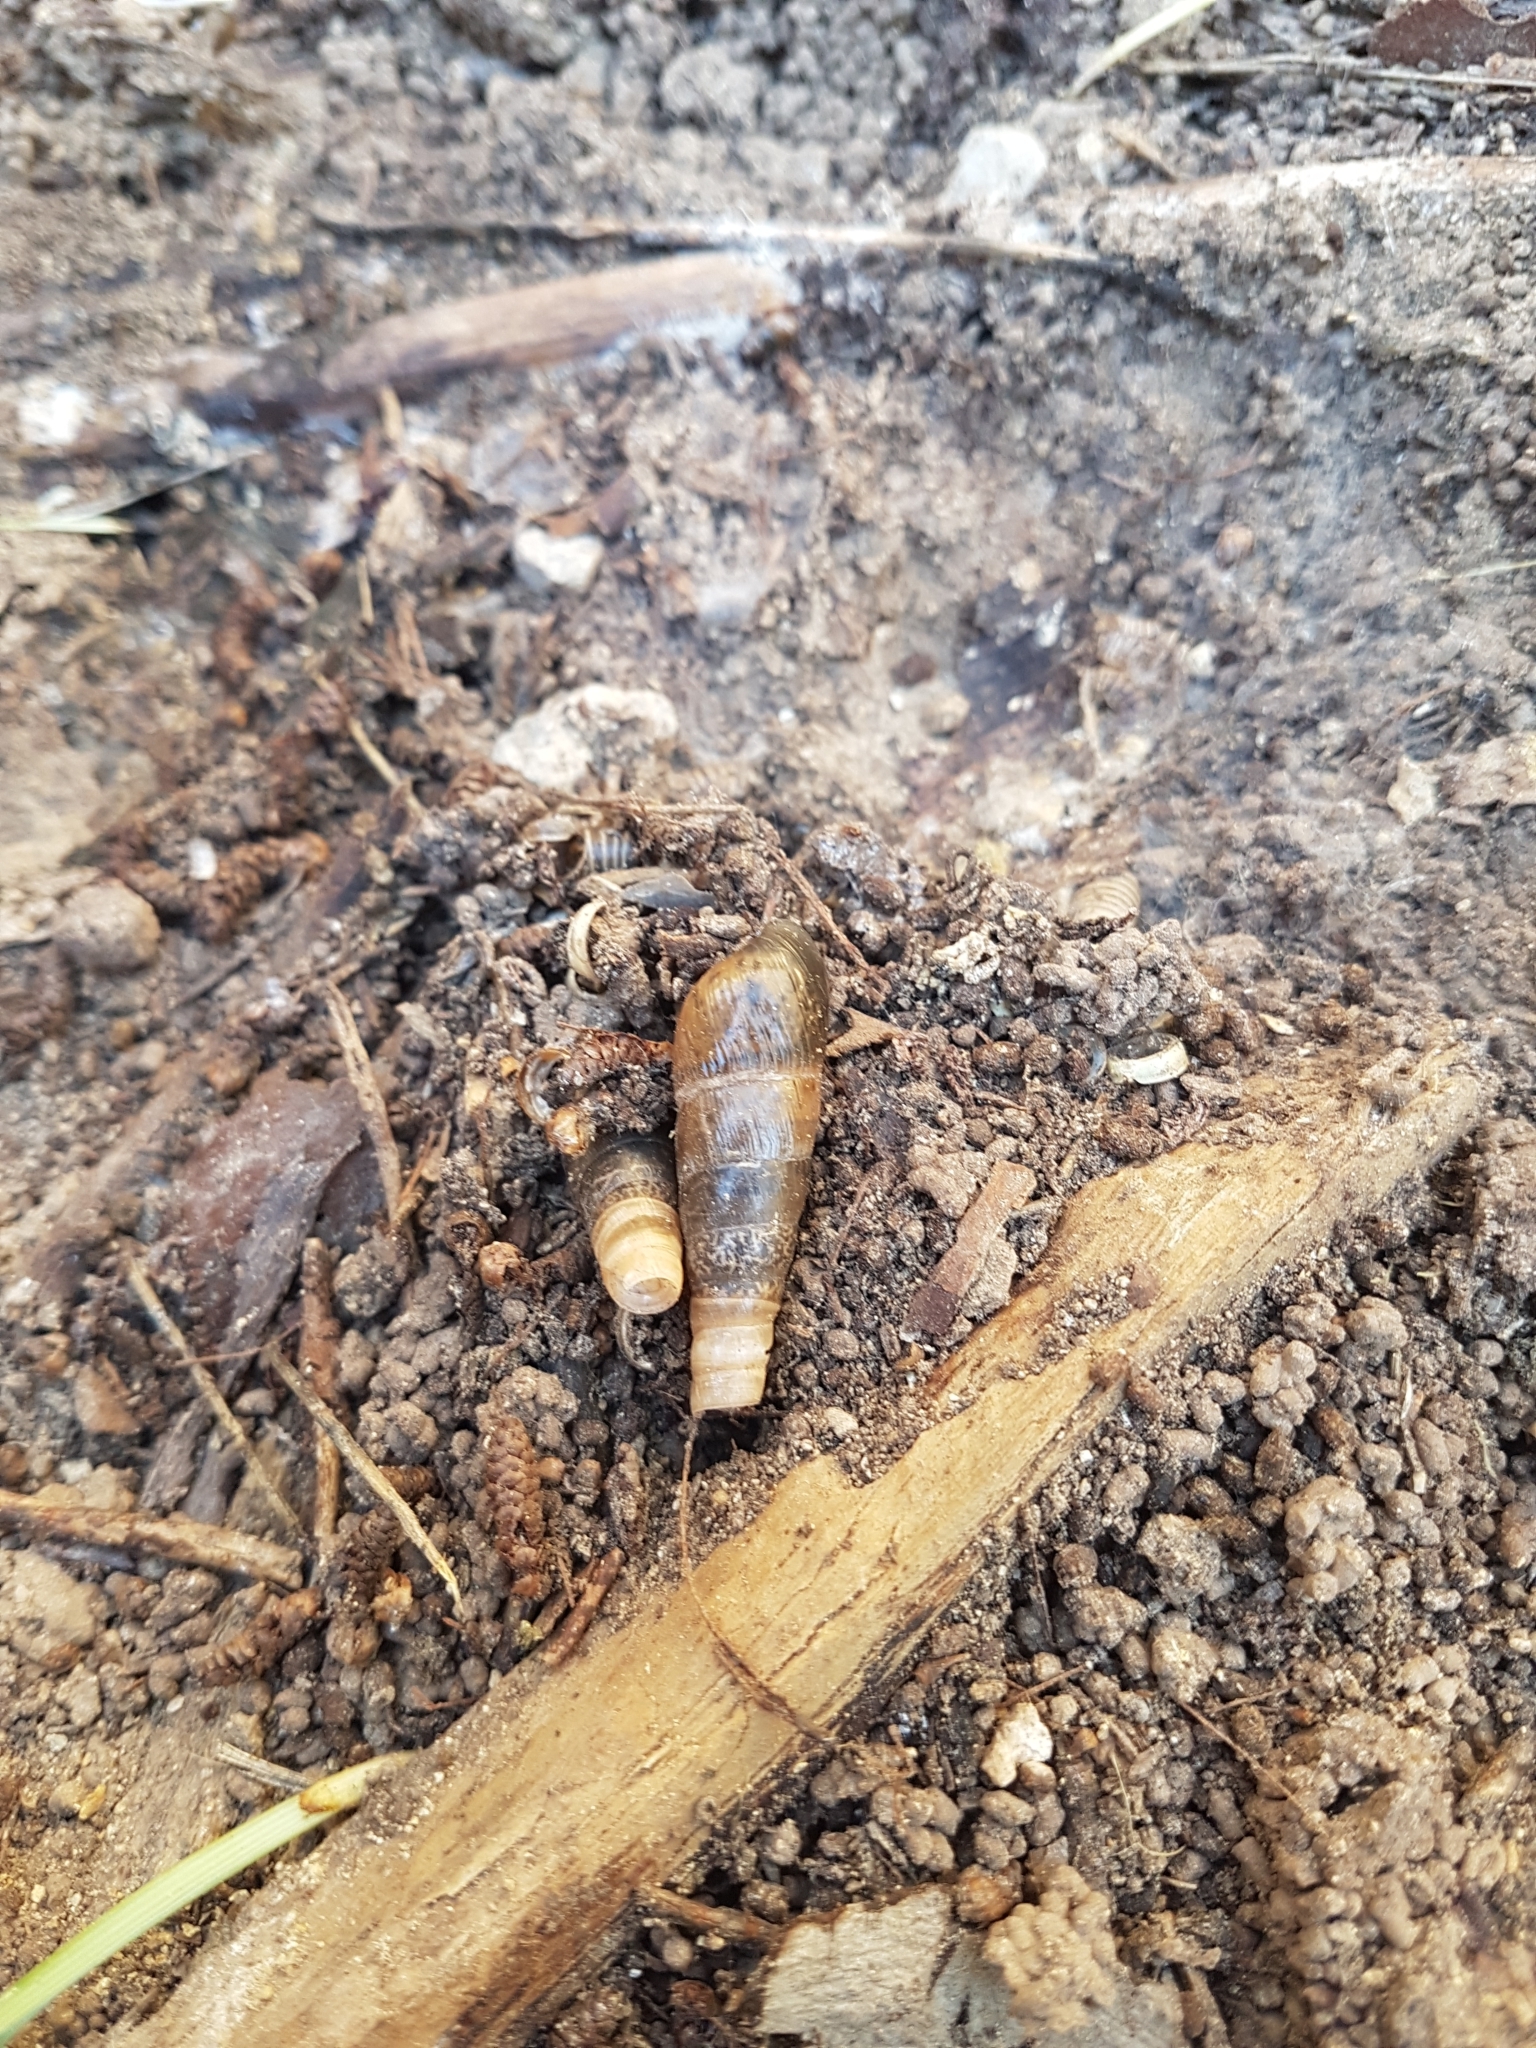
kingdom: Animalia
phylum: Mollusca
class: Gastropoda
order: Stylommatophora
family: Achatinidae
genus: Rumina
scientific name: Rumina decollata
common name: Decollate snail
